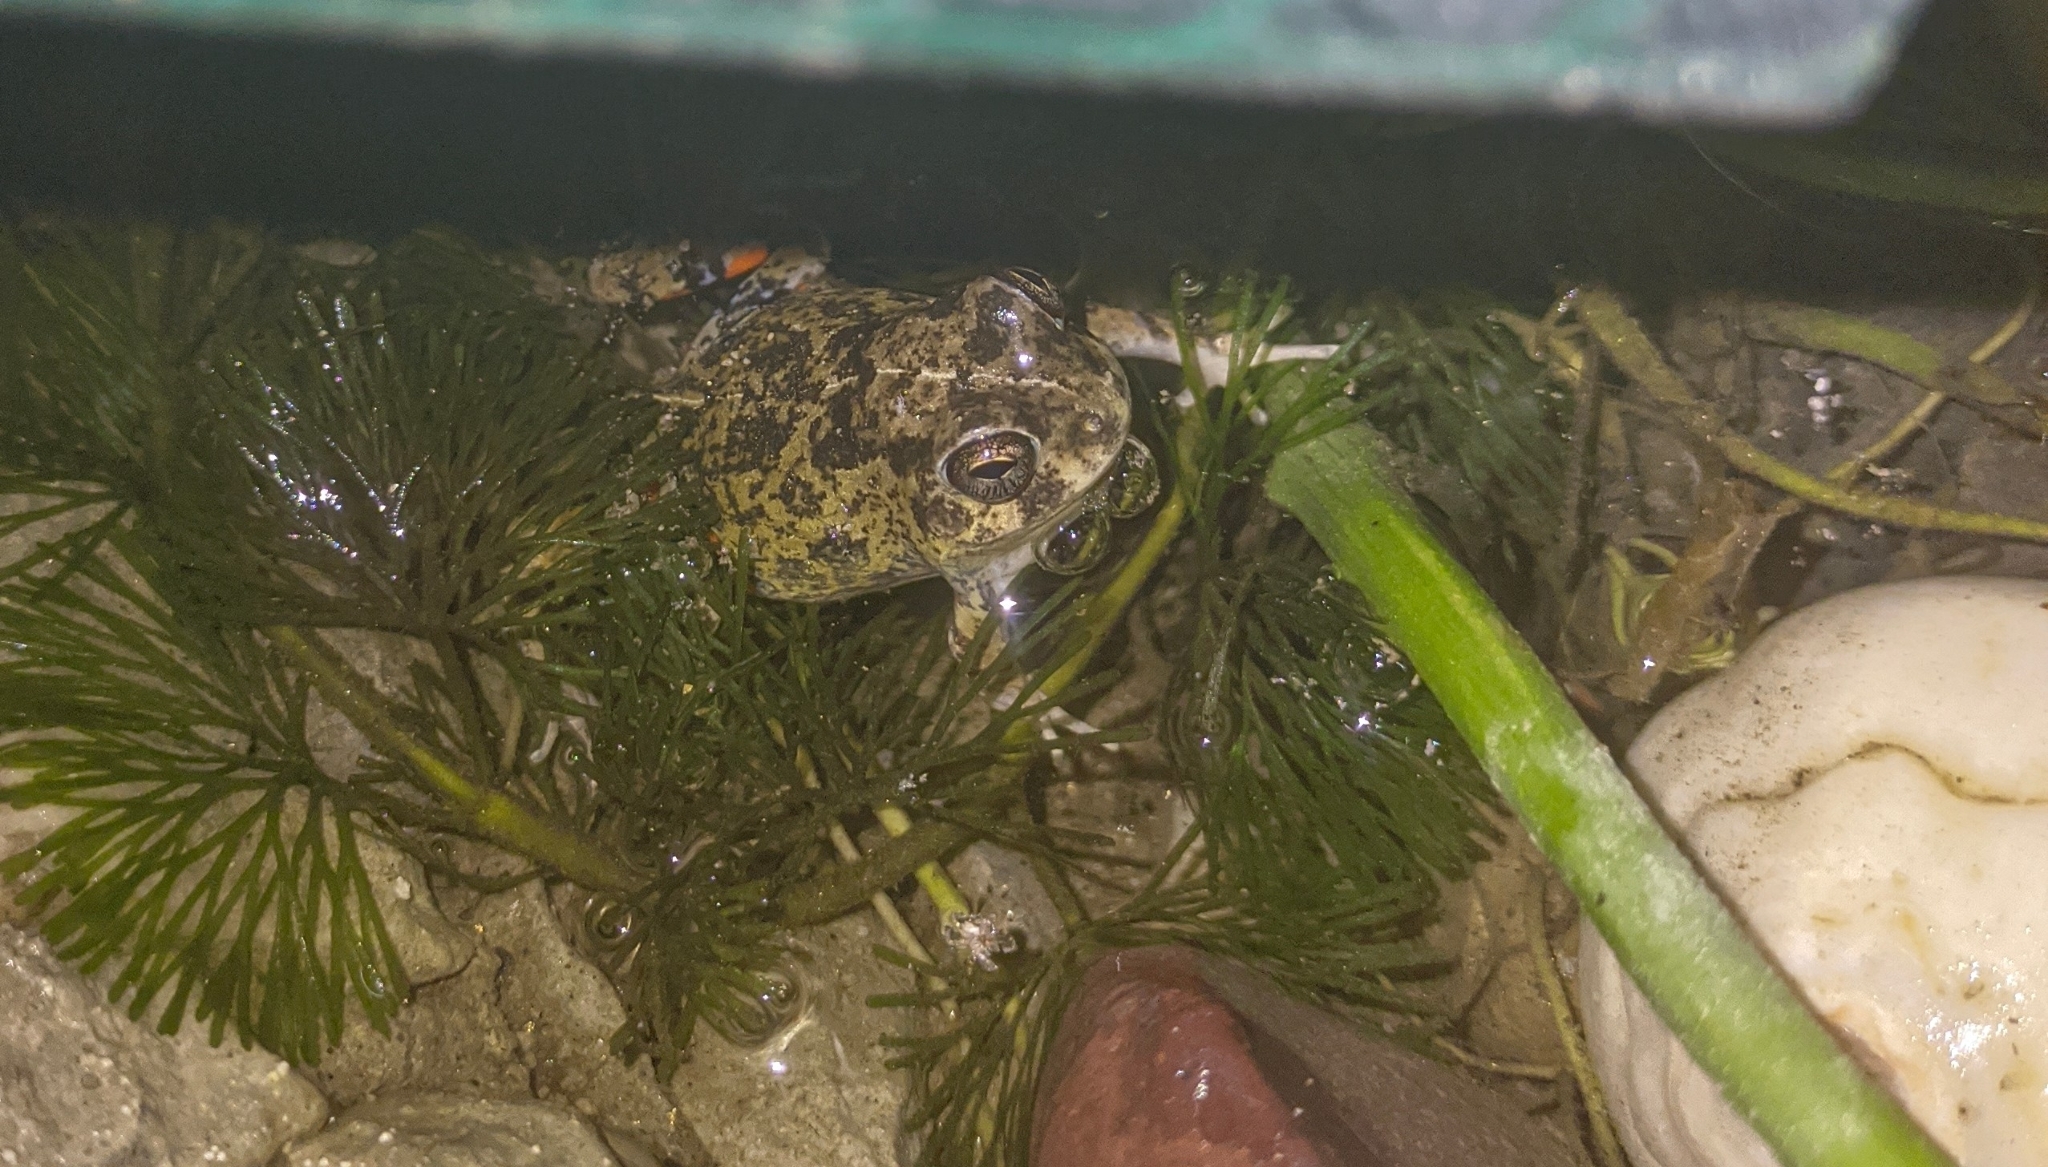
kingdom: Animalia
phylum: Chordata
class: Amphibia
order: Anura
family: Leptodactylidae
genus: Pleurodema
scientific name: Pleurodema brachyops
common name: Colombian four-eyed frog
